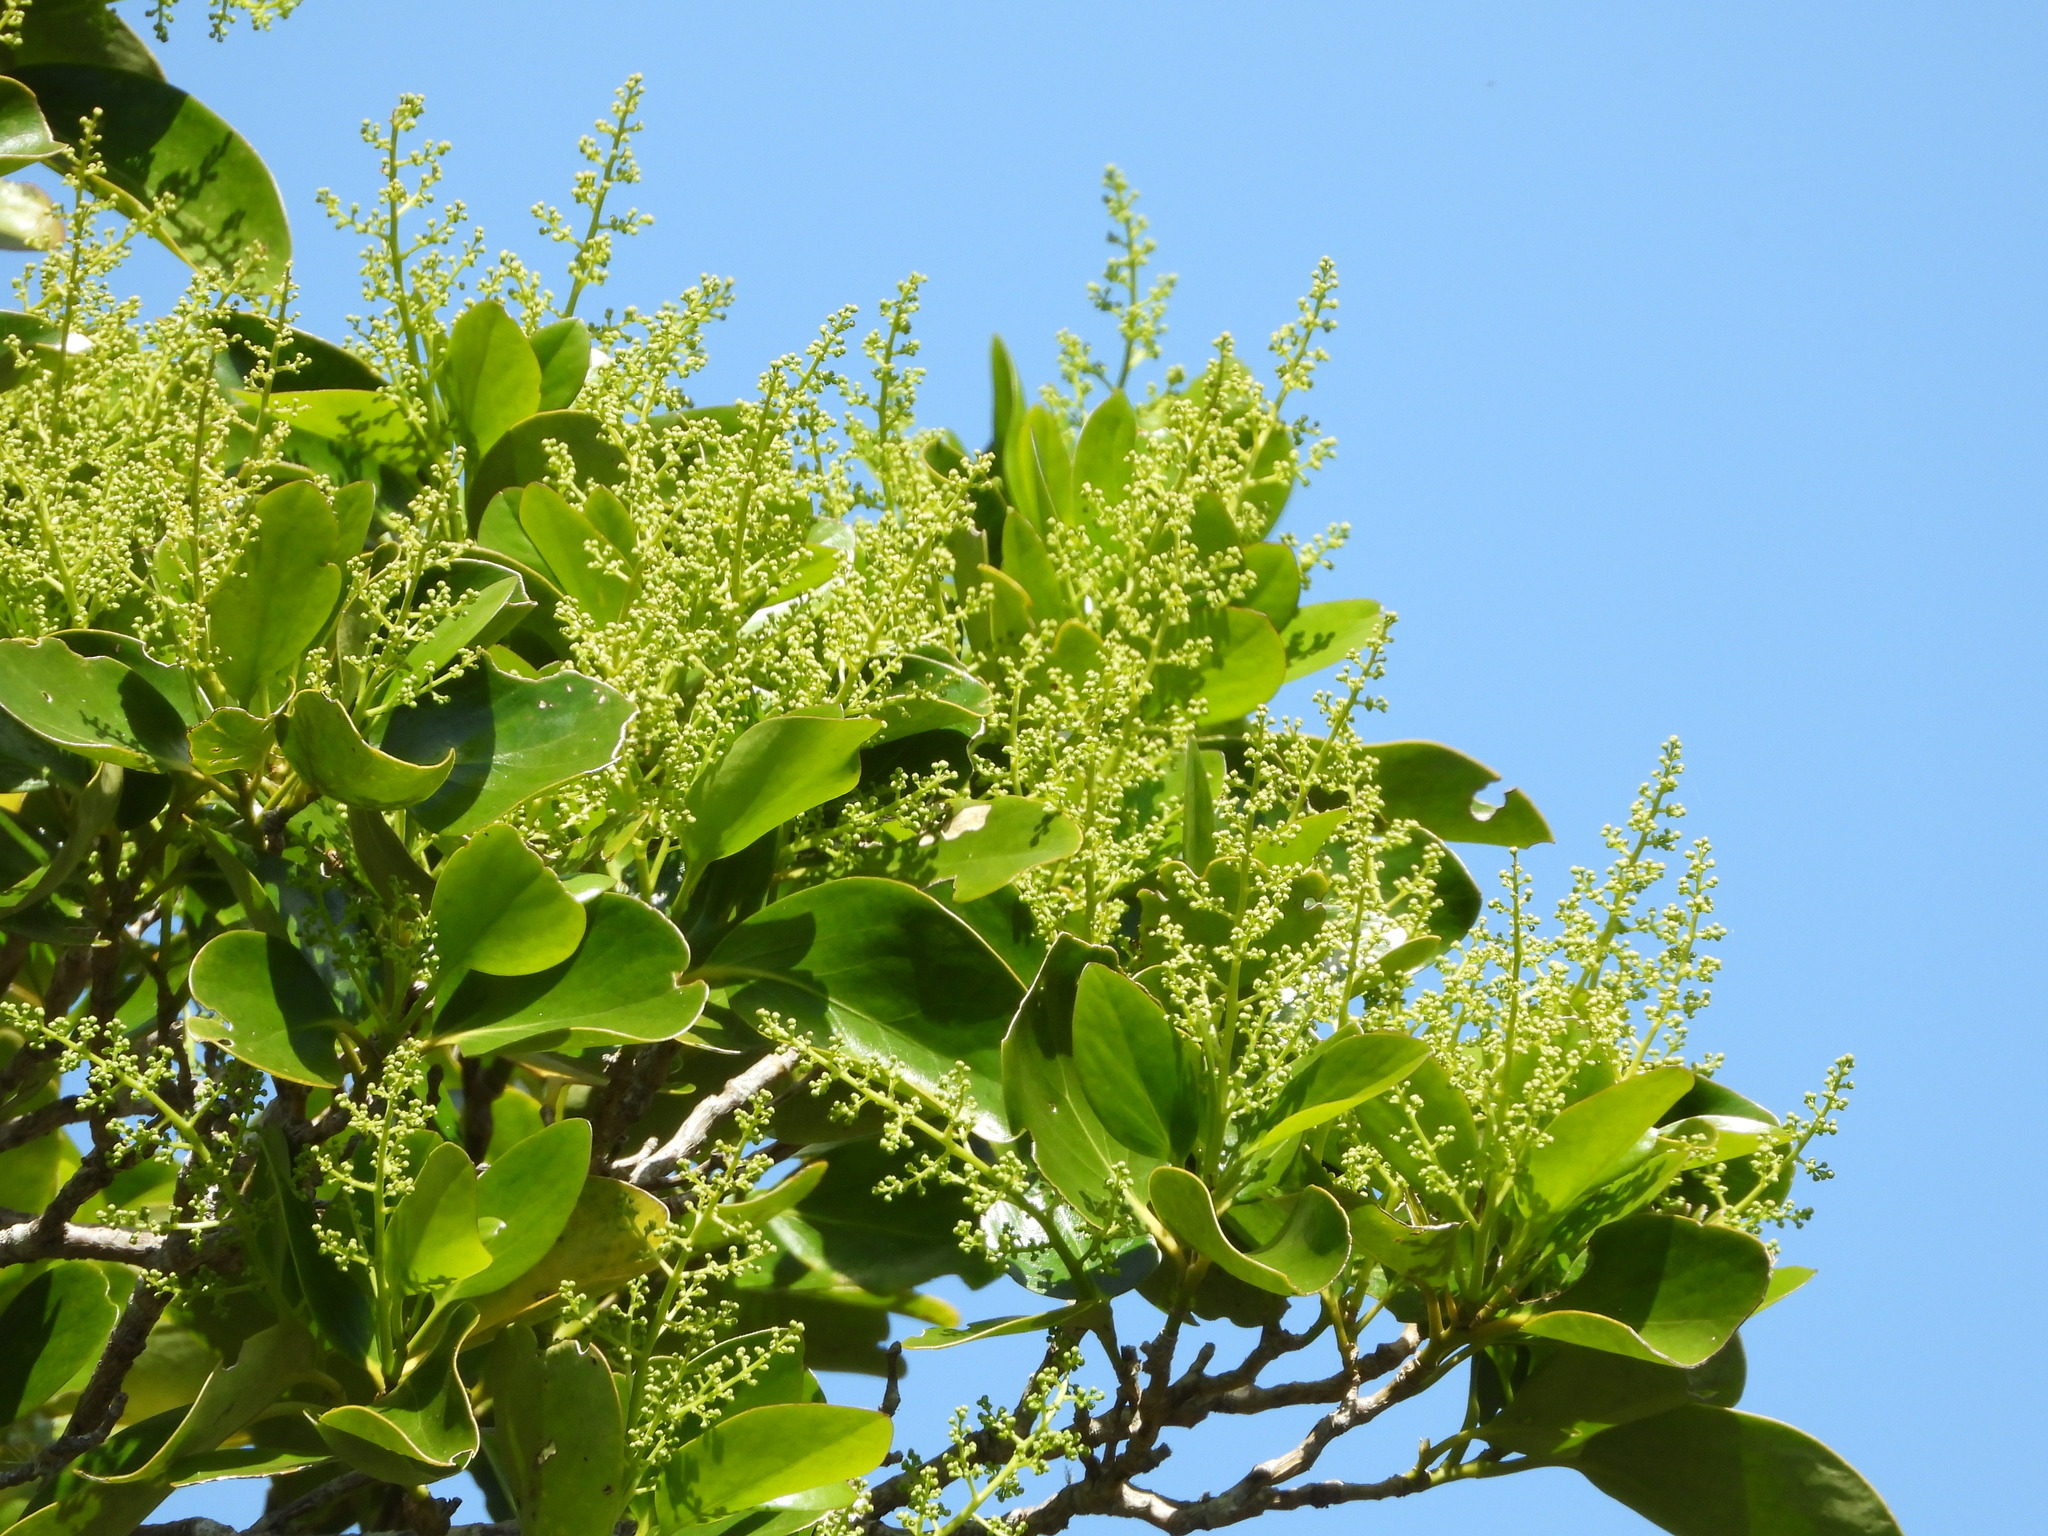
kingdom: Plantae
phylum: Tracheophyta
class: Magnoliopsida
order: Apiales
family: Griseliniaceae
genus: Griselinia
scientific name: Griselinia lucida
